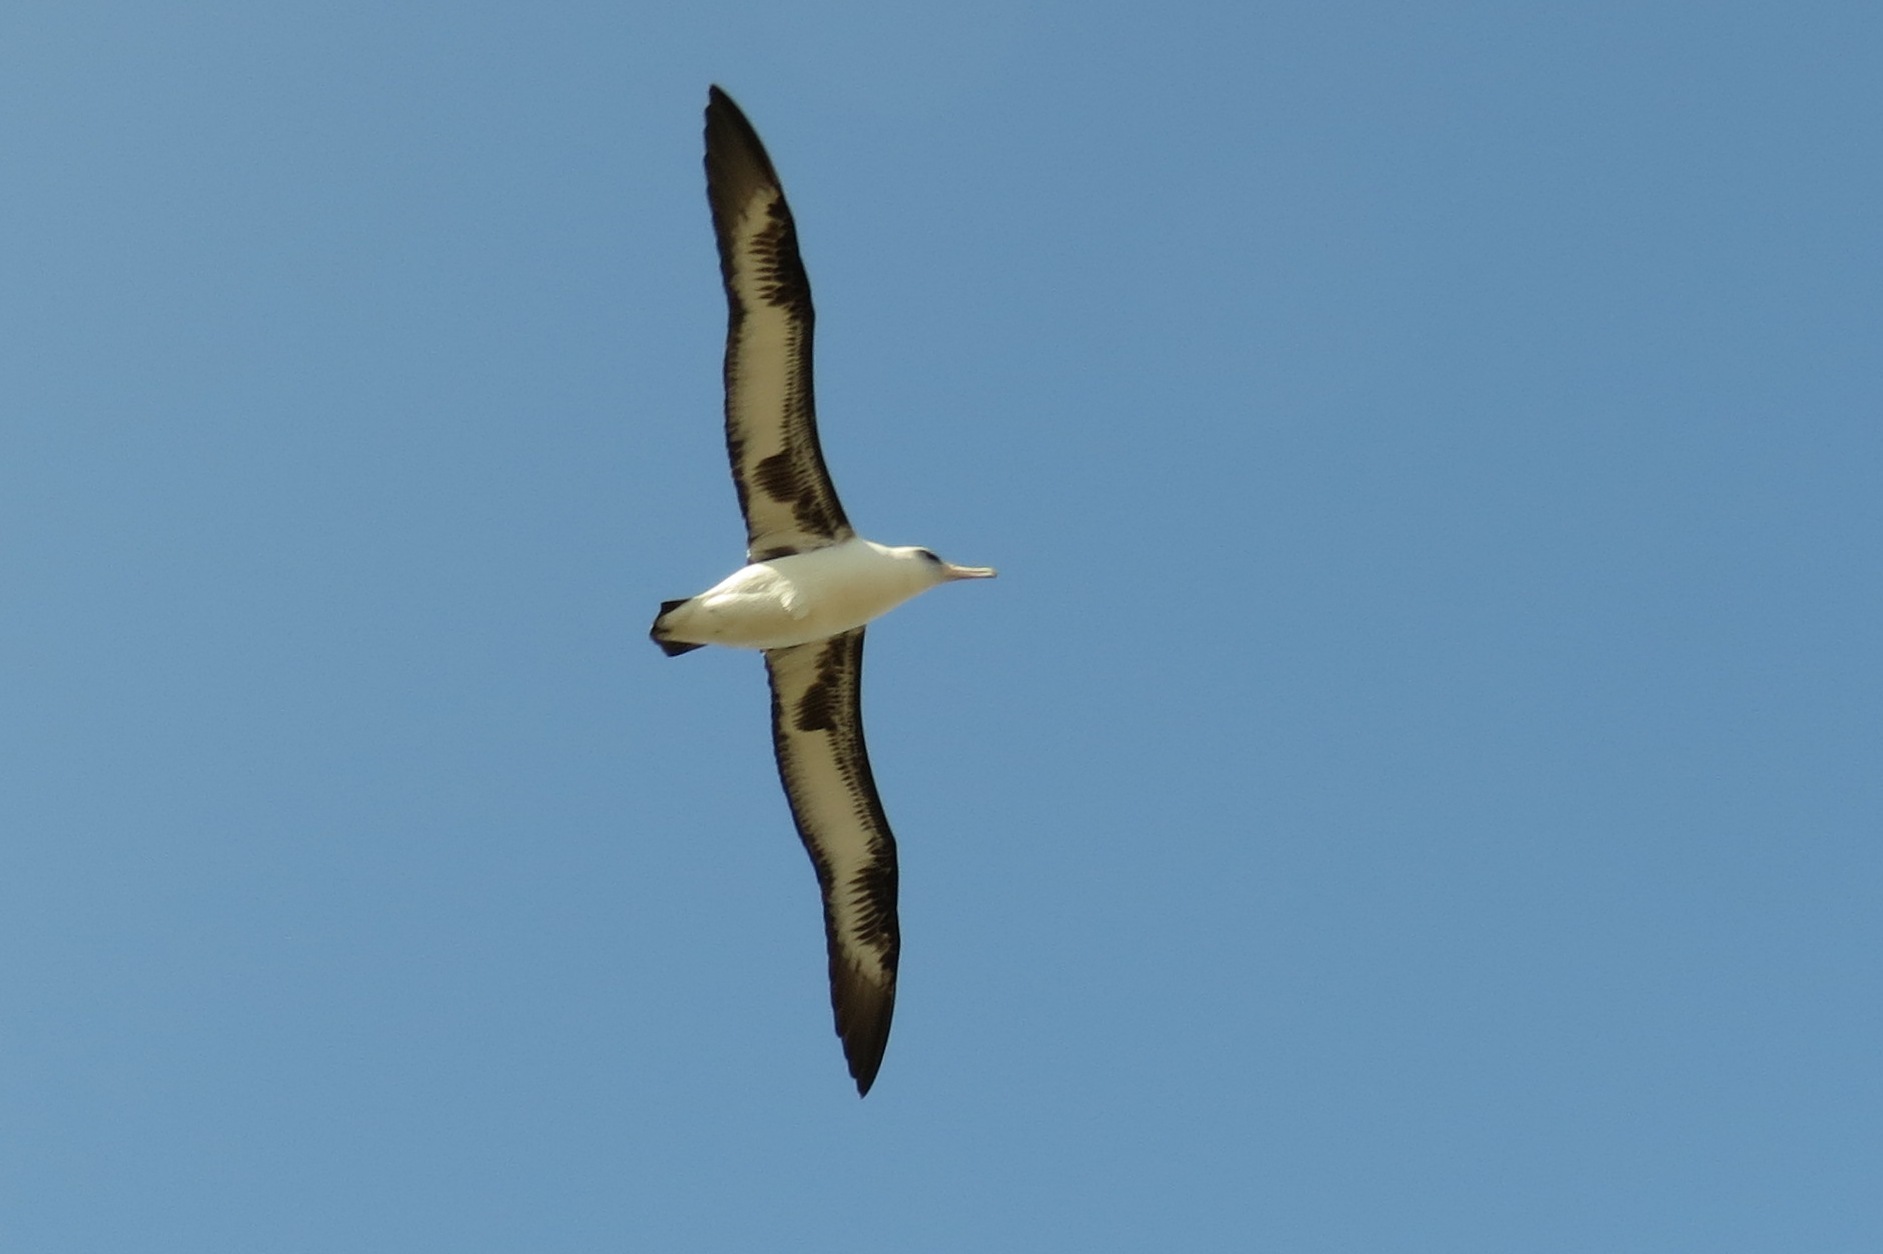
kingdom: Animalia
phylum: Chordata
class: Aves
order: Procellariiformes
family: Diomedeidae
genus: Phoebastria
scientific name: Phoebastria immutabilis
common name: Laysan albatross
